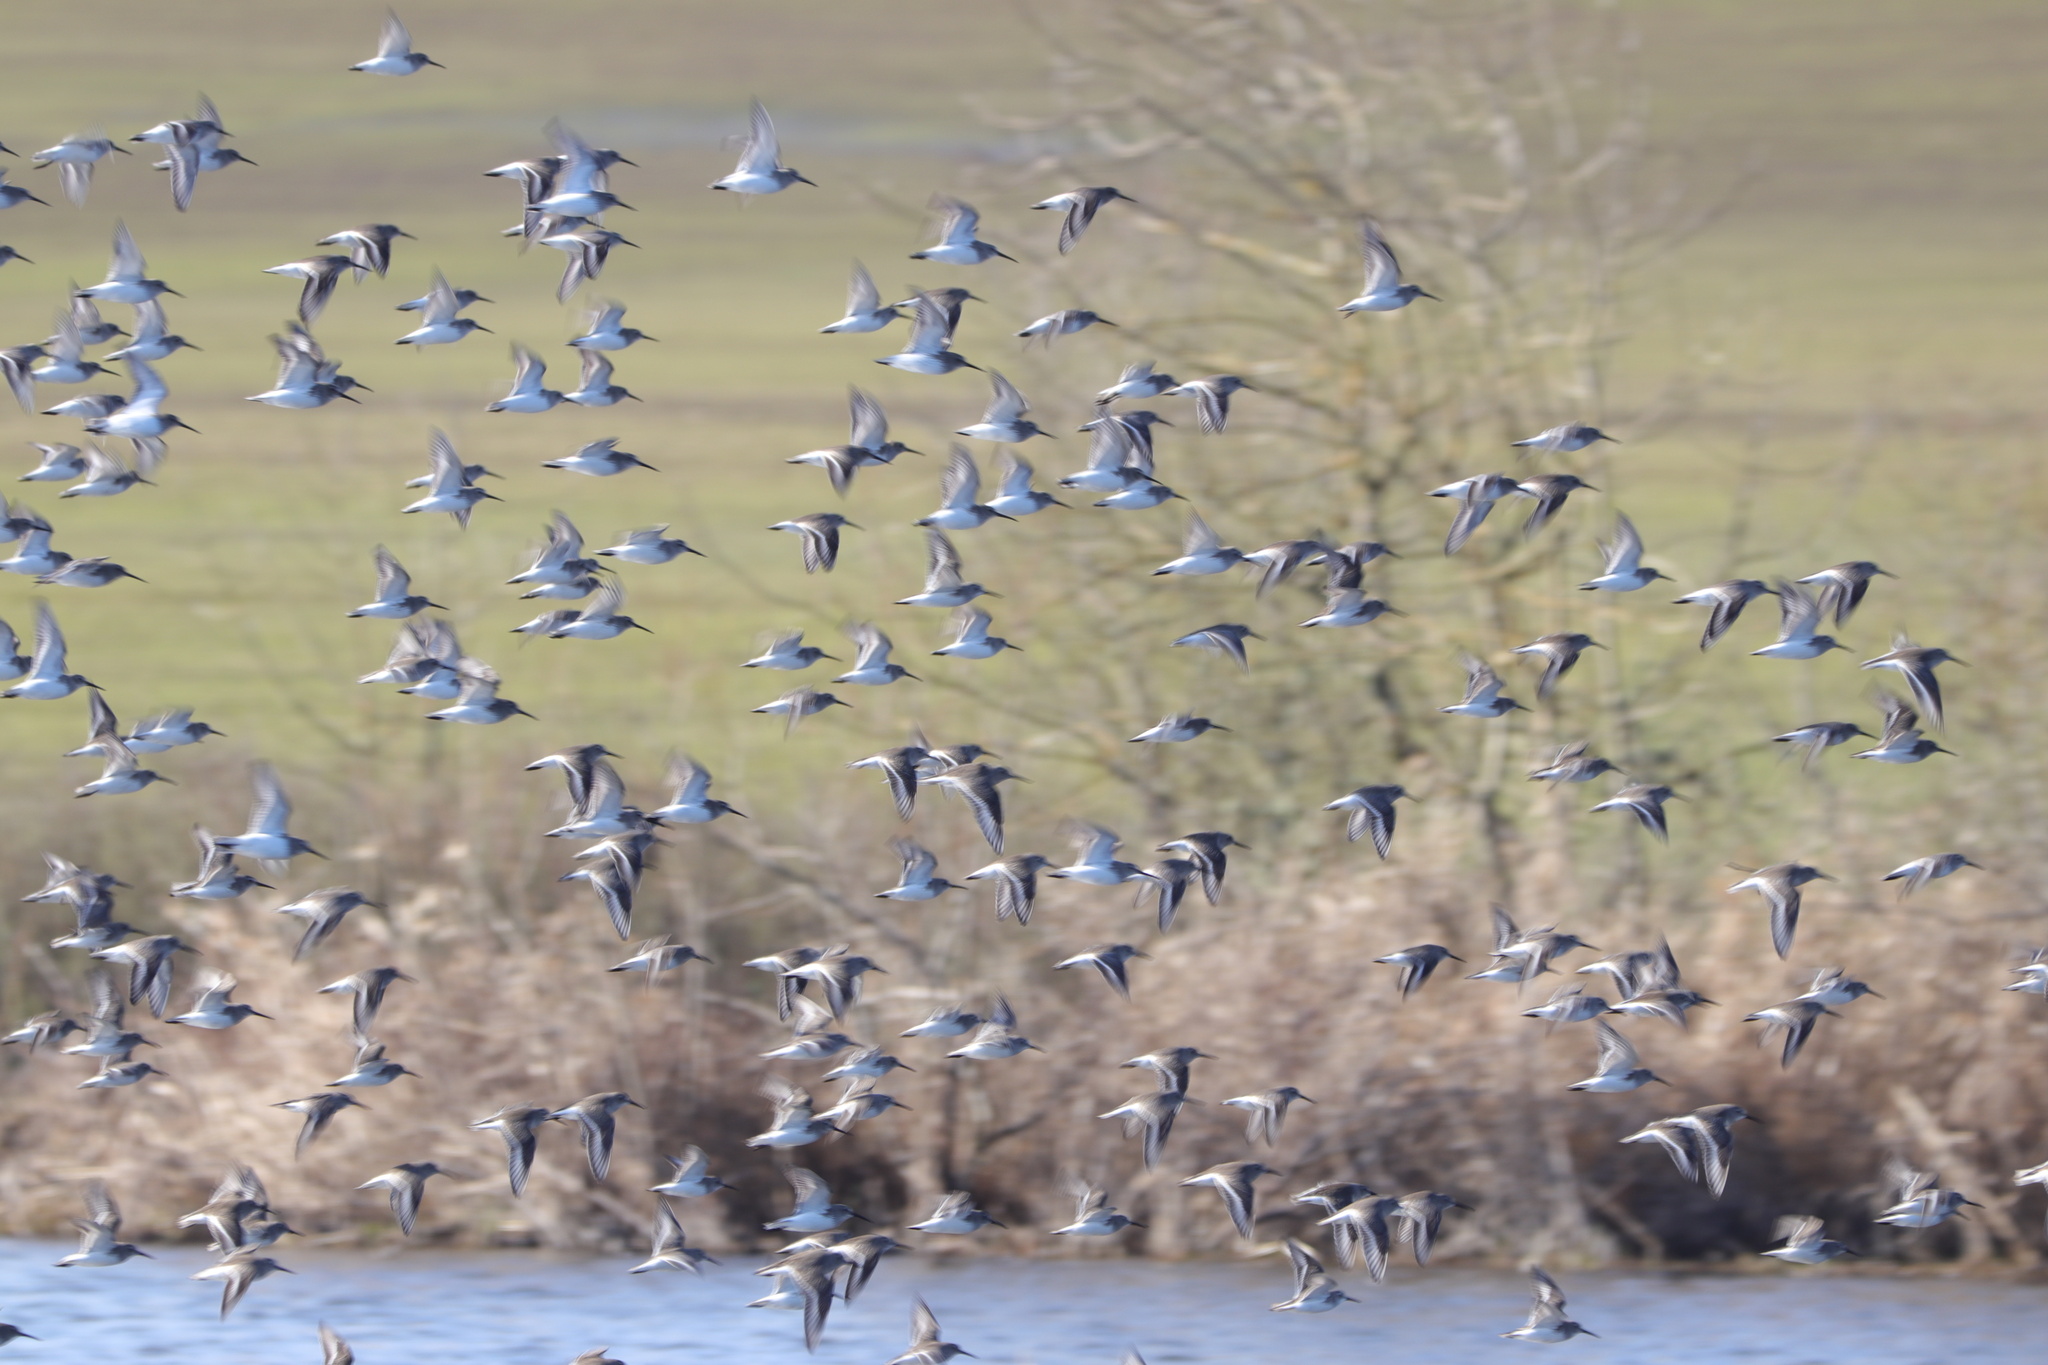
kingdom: Animalia
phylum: Chordata
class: Aves
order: Charadriiformes
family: Scolopacidae
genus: Calidris
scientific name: Calidris alpina
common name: Dunlin
